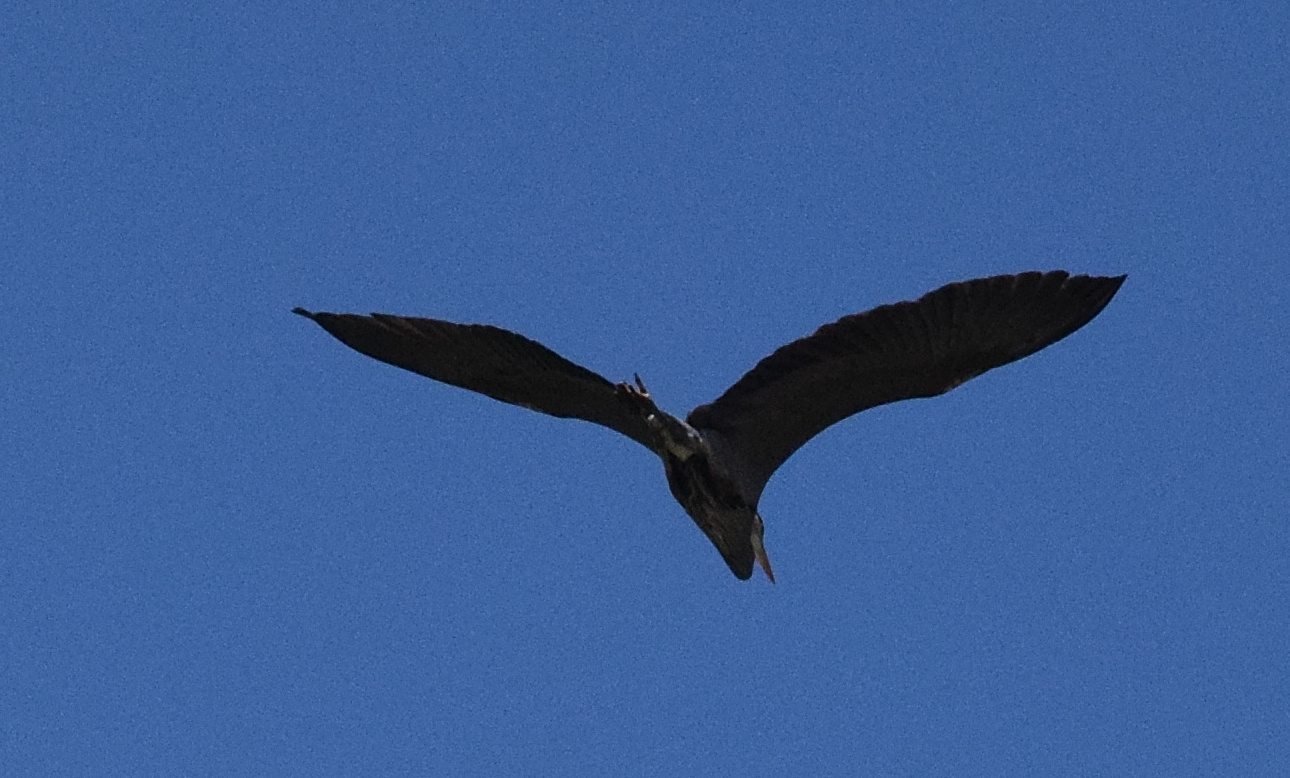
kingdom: Animalia
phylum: Chordata
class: Aves
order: Pelecaniformes
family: Ardeidae
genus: Ardea
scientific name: Ardea herodias
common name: Great blue heron
